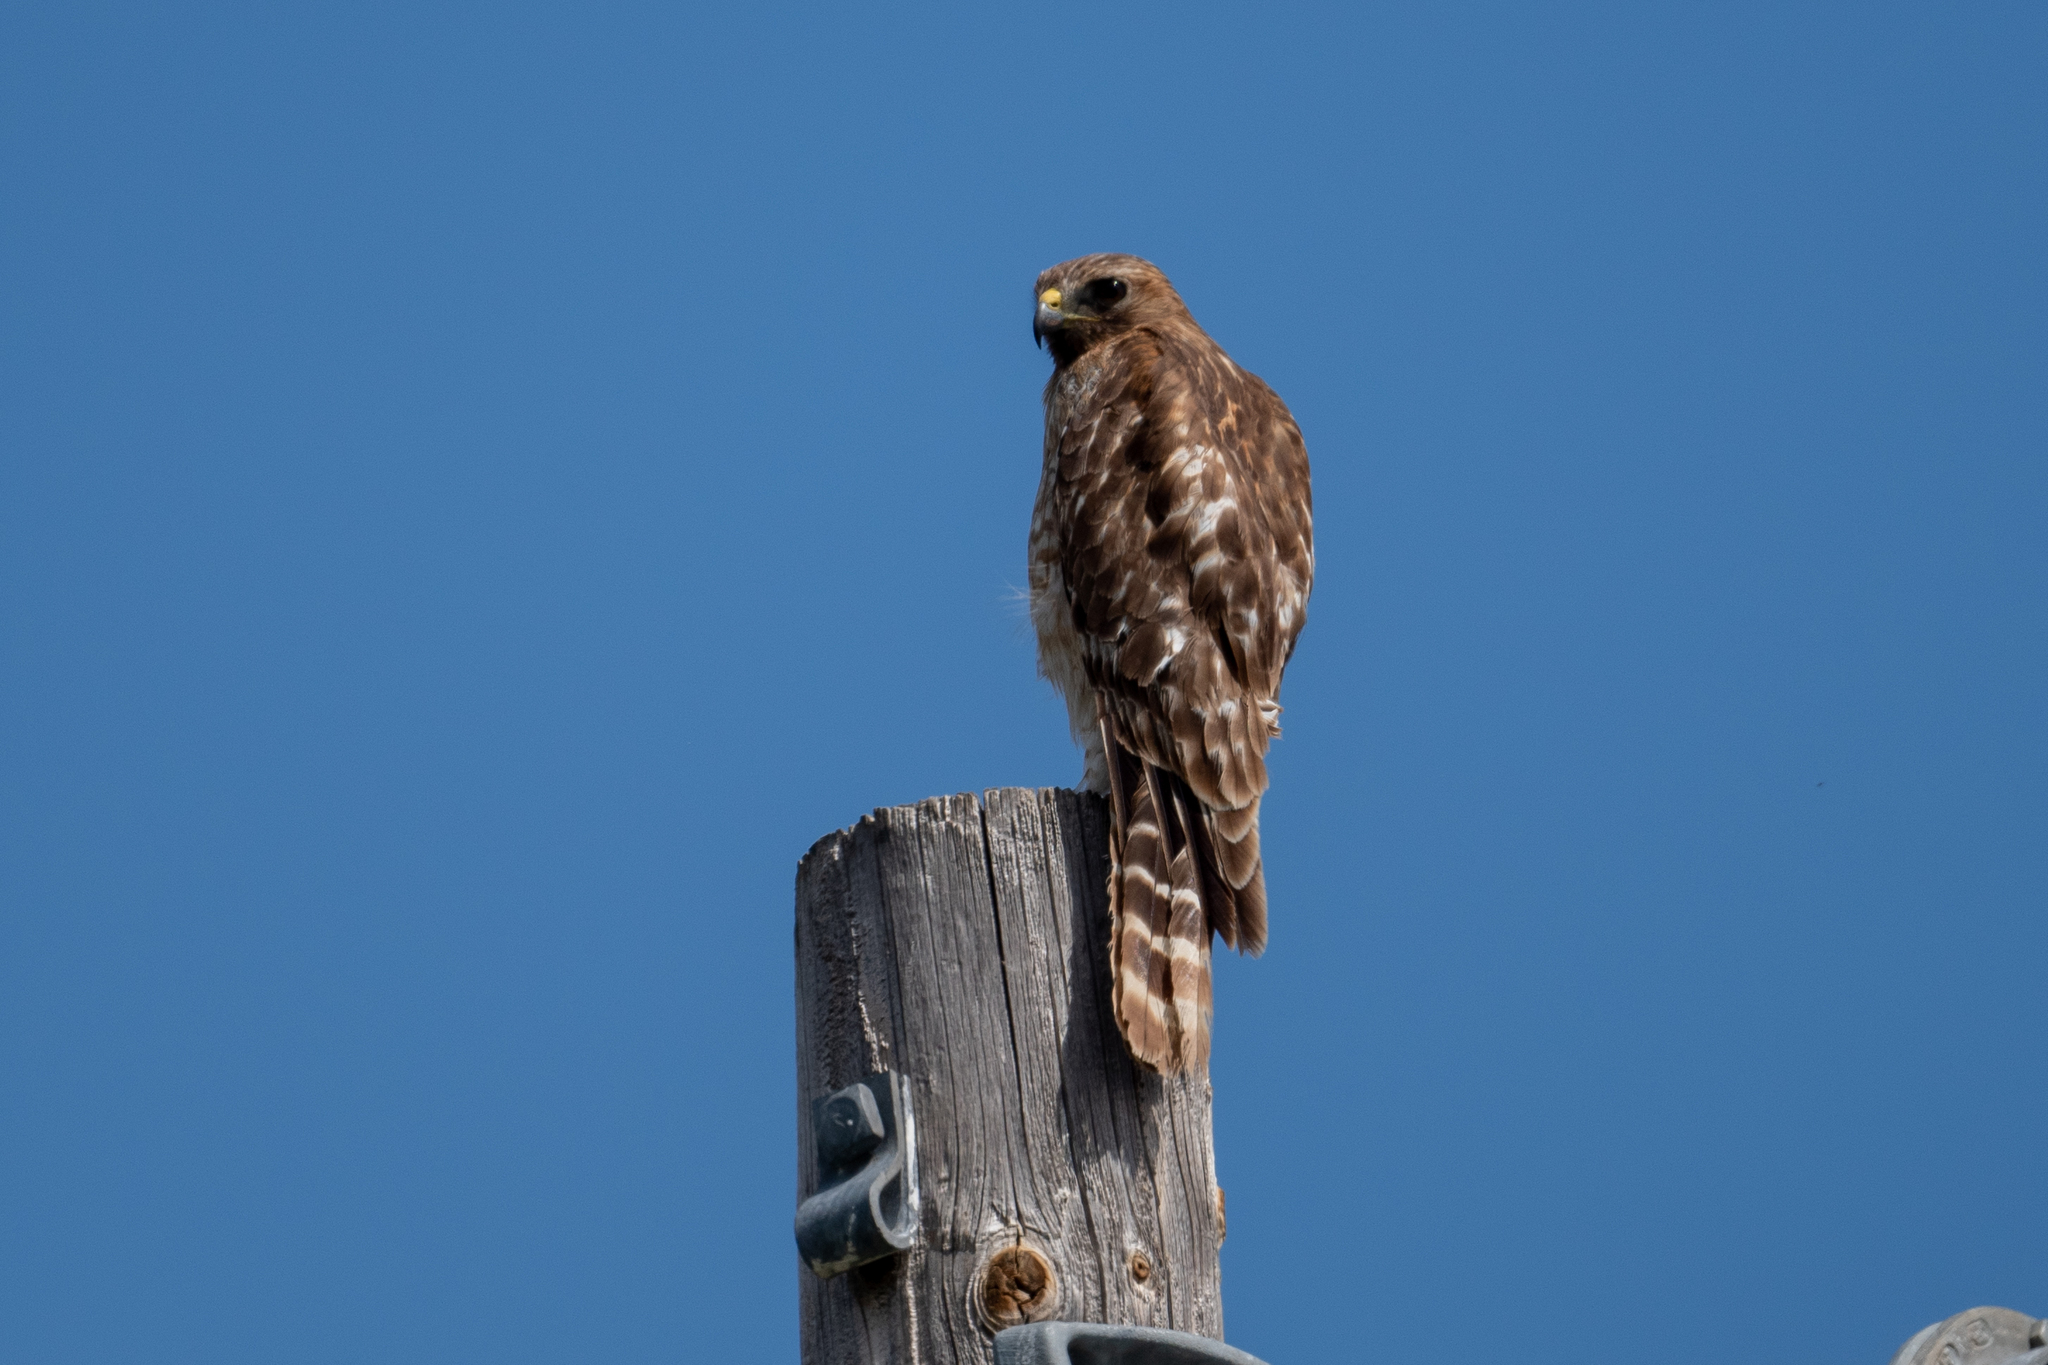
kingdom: Animalia
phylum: Chordata
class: Aves
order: Accipitriformes
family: Accipitridae
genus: Buteo
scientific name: Buteo lineatus
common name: Red-shouldered hawk
